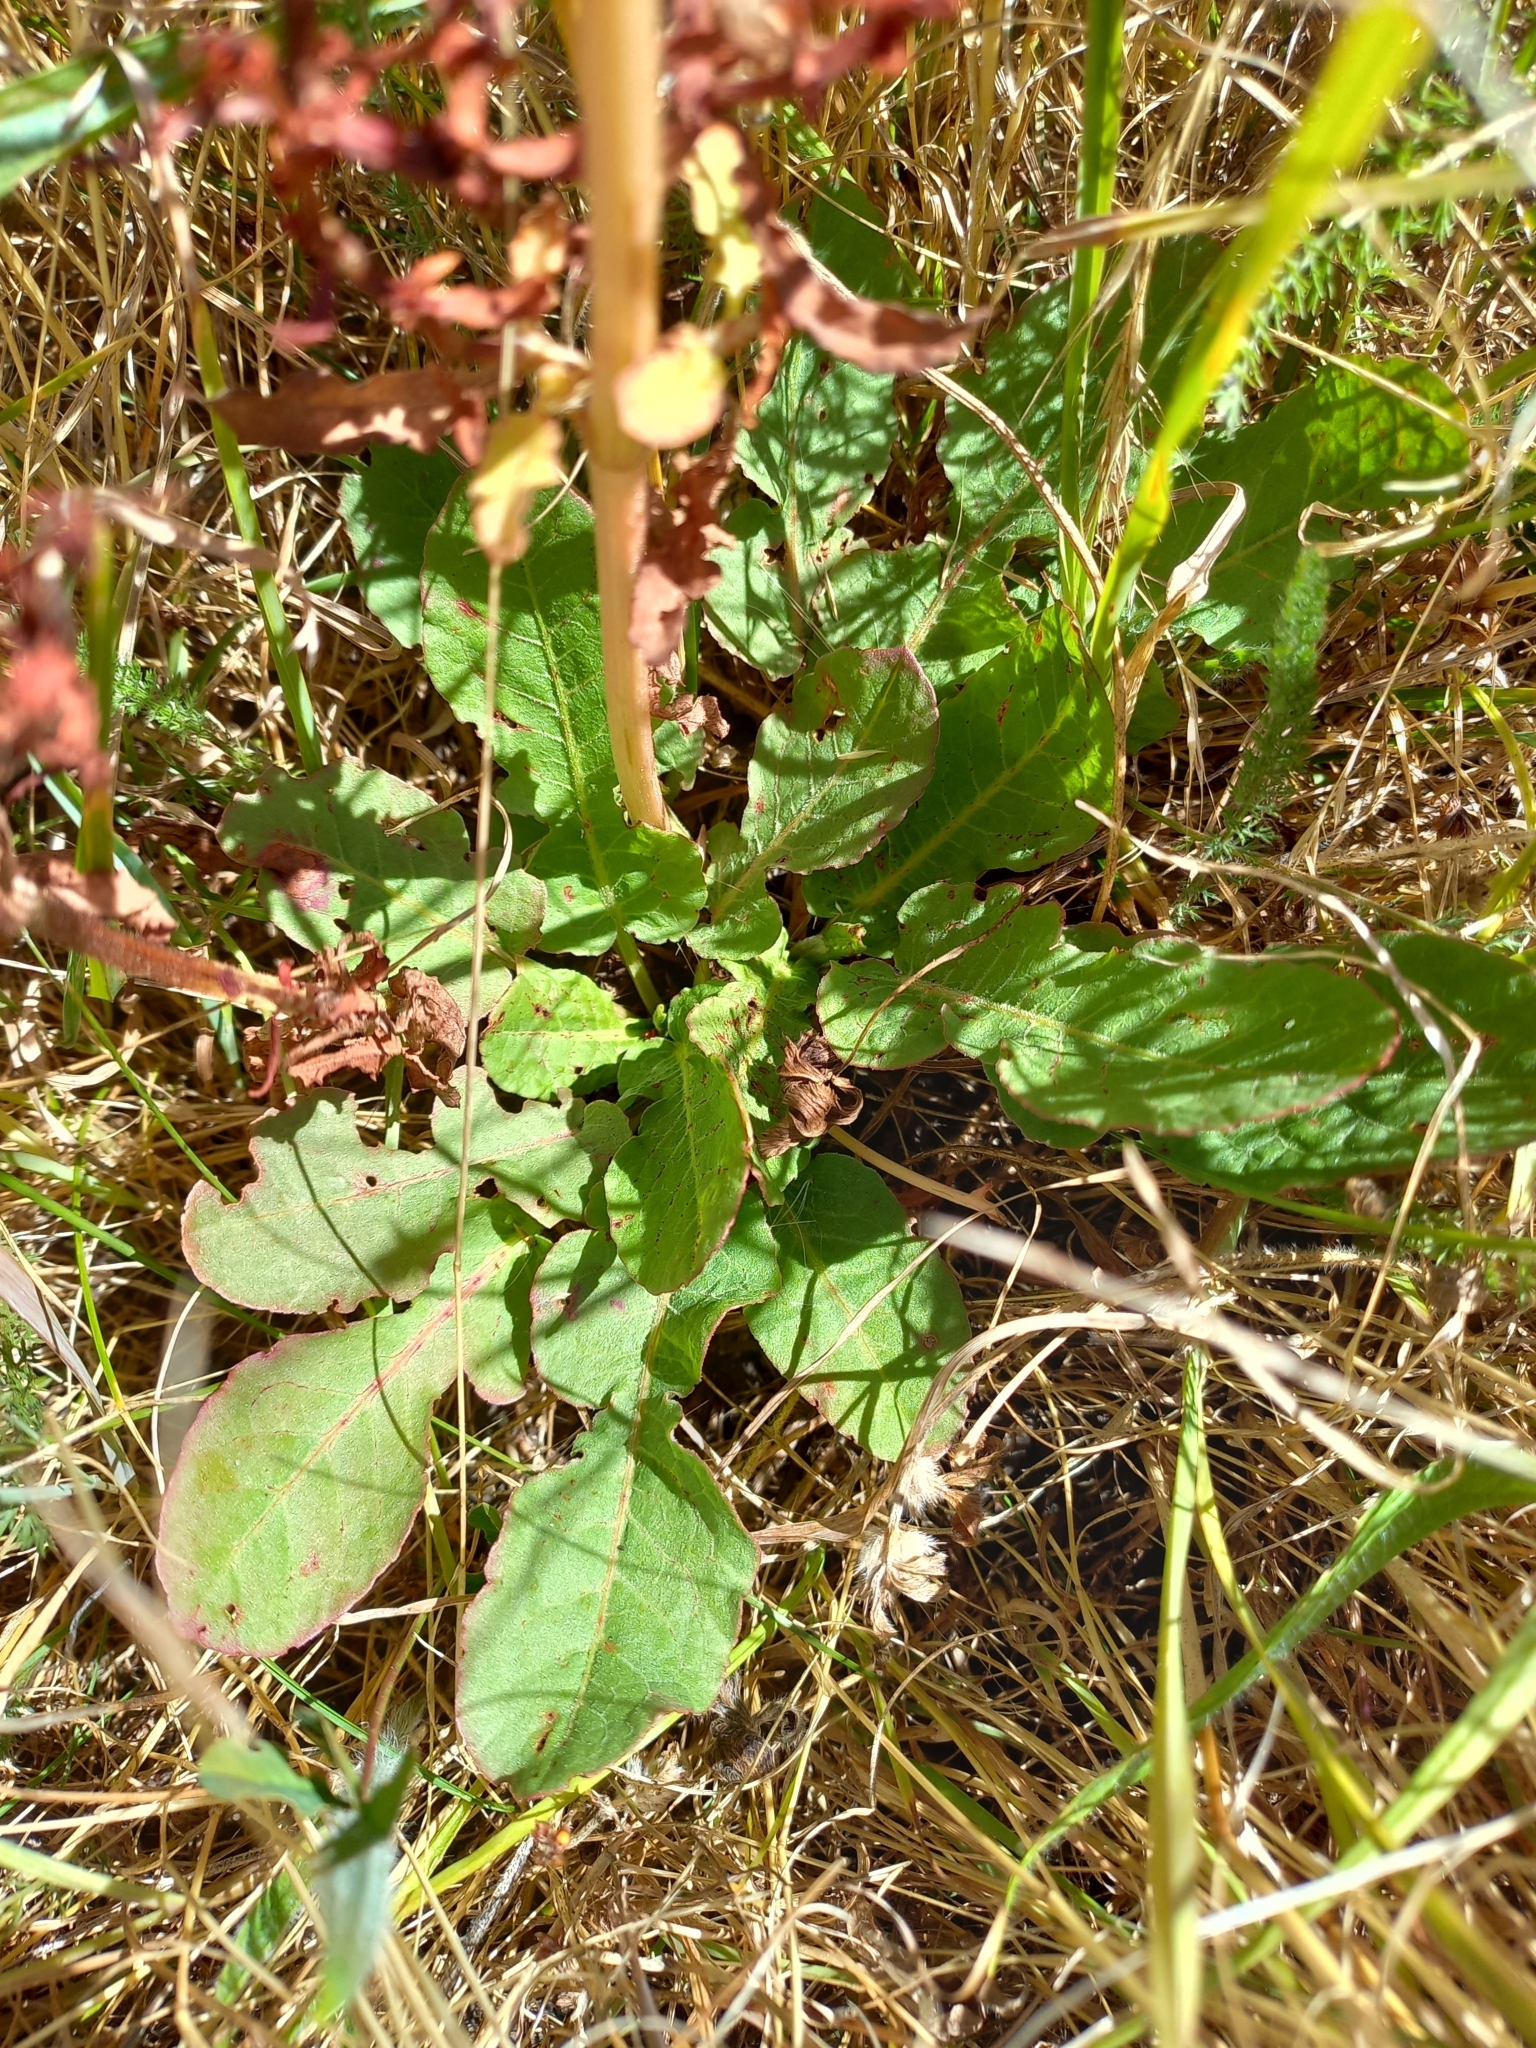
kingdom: Plantae
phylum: Tracheophyta
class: Magnoliopsida
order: Caryophyllales
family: Polygonaceae
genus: Rumex
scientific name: Rumex pulcher
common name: Fiddle dock
